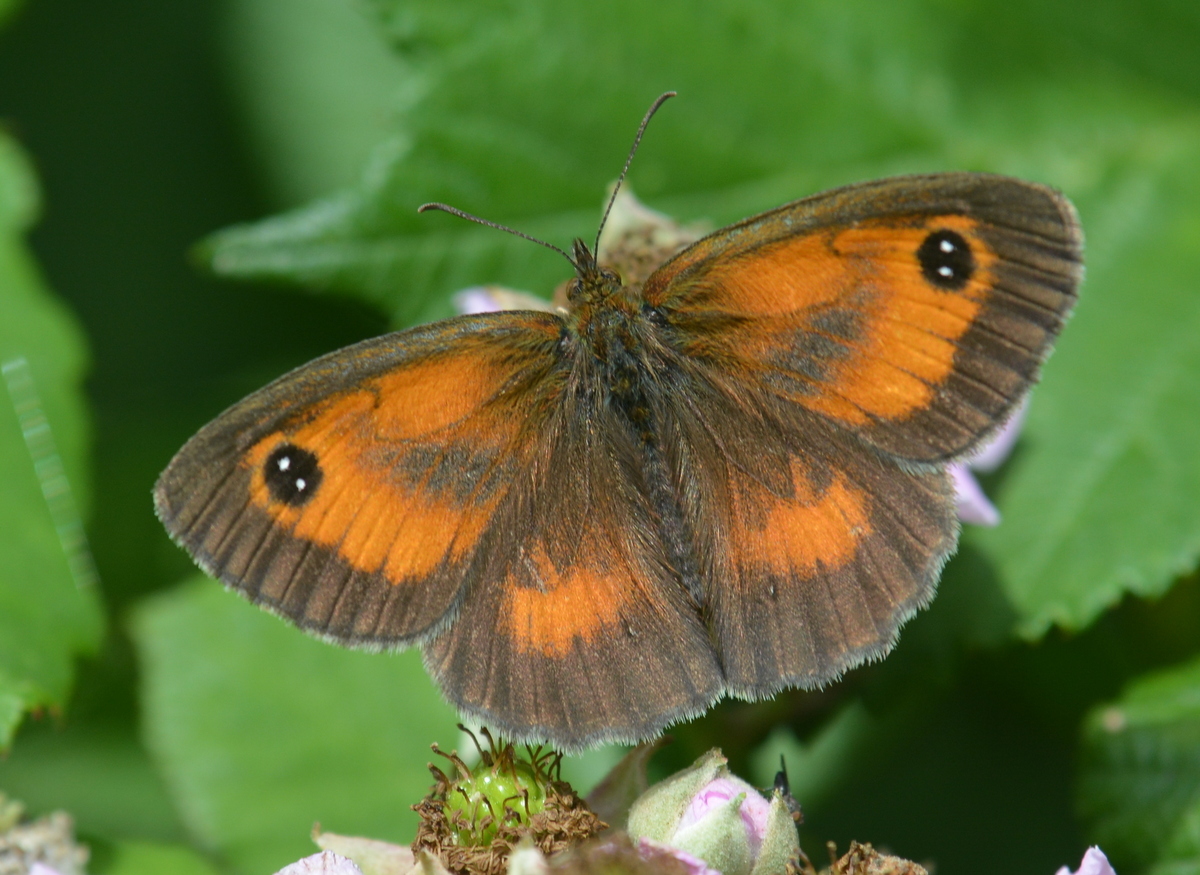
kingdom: Animalia
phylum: Arthropoda
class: Insecta
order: Lepidoptera
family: Nymphalidae
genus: Pyronia
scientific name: Pyronia tithonus
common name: Gatekeeper
